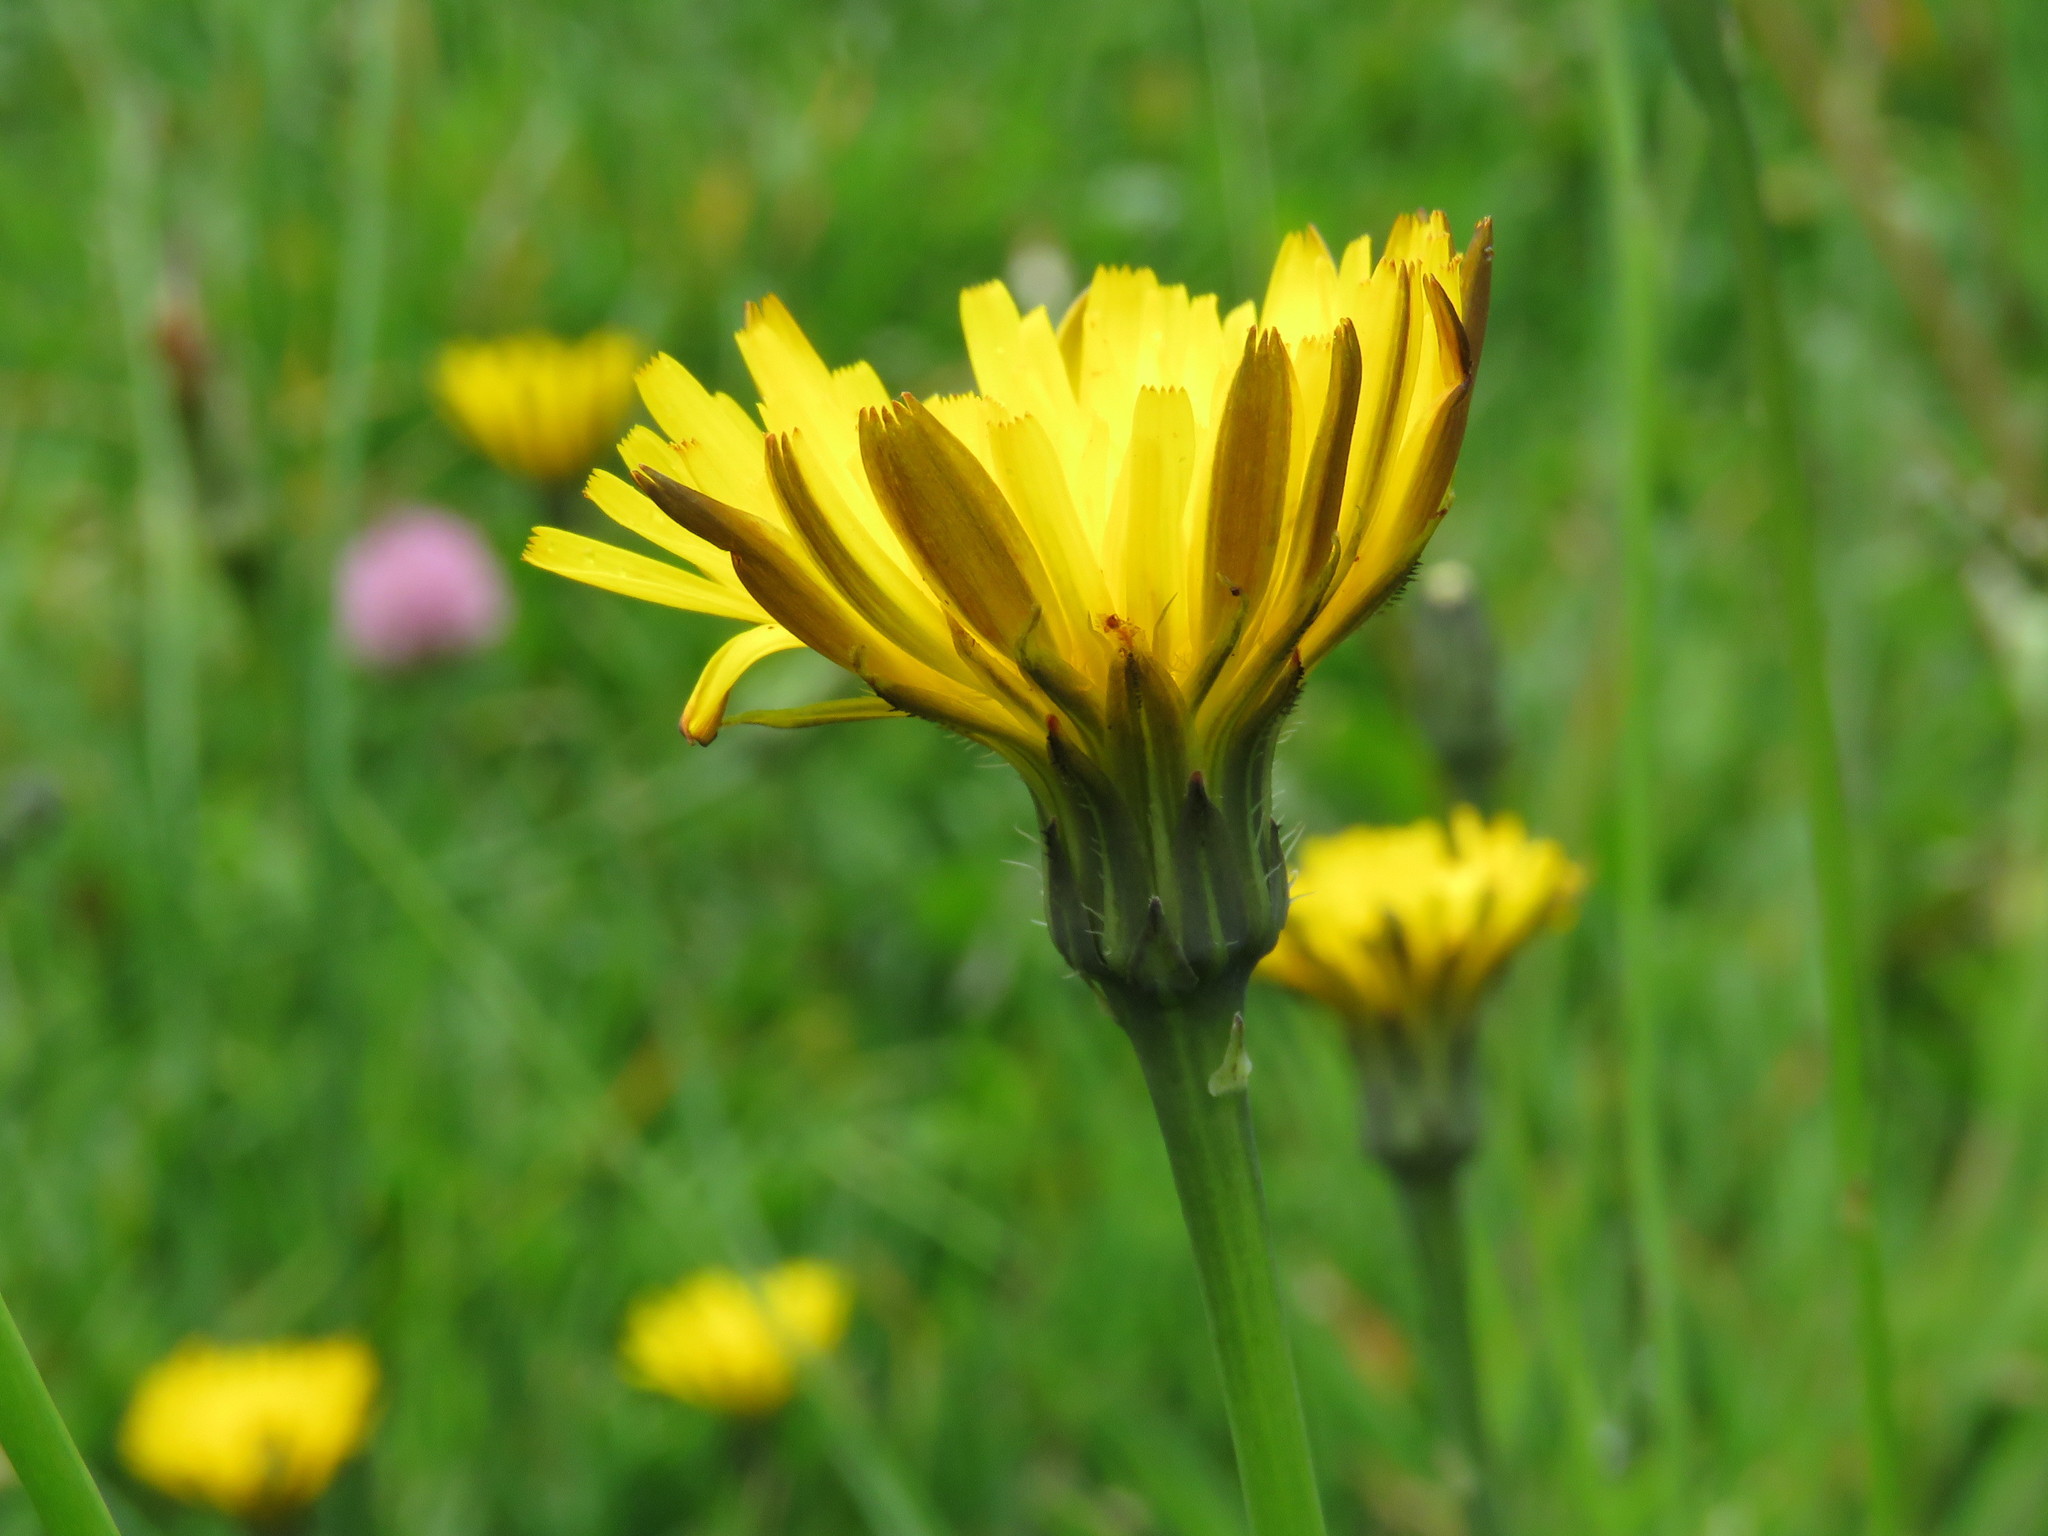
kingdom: Plantae
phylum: Tracheophyta
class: Magnoliopsida
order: Asterales
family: Asteraceae
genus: Hypochaeris
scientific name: Hypochaeris radicata
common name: Flatweed
